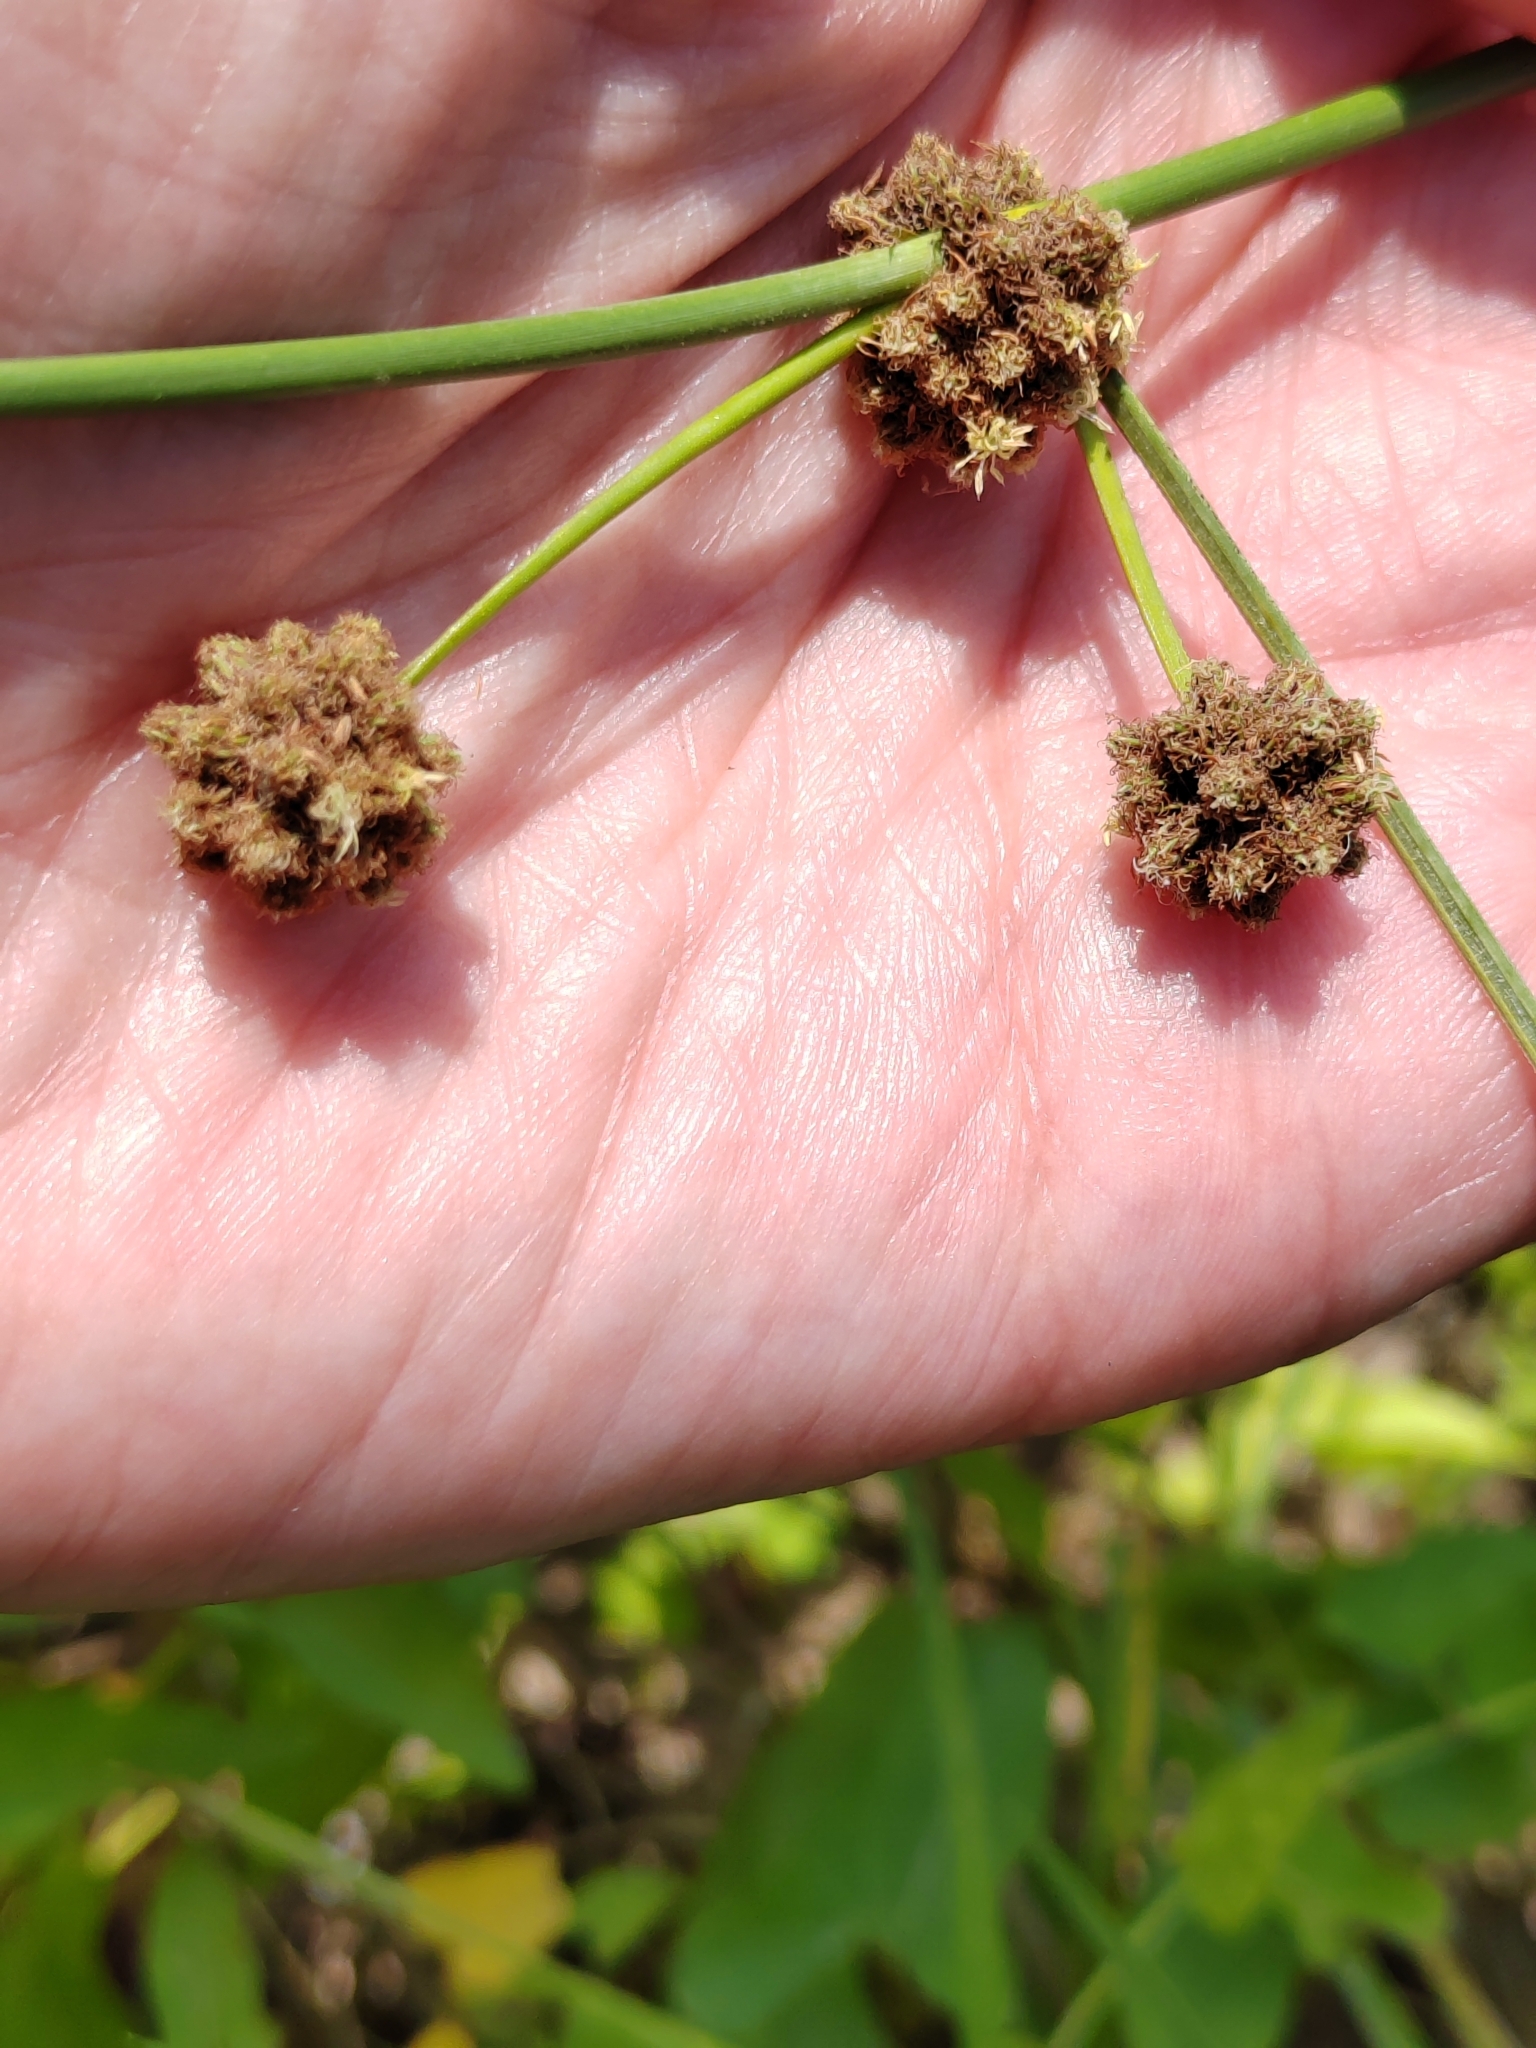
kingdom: Plantae
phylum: Tracheophyta
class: Liliopsida
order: Poales
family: Cyperaceae
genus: Scirpoides
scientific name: Scirpoides holoschoenus
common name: Round-headed club-rush
